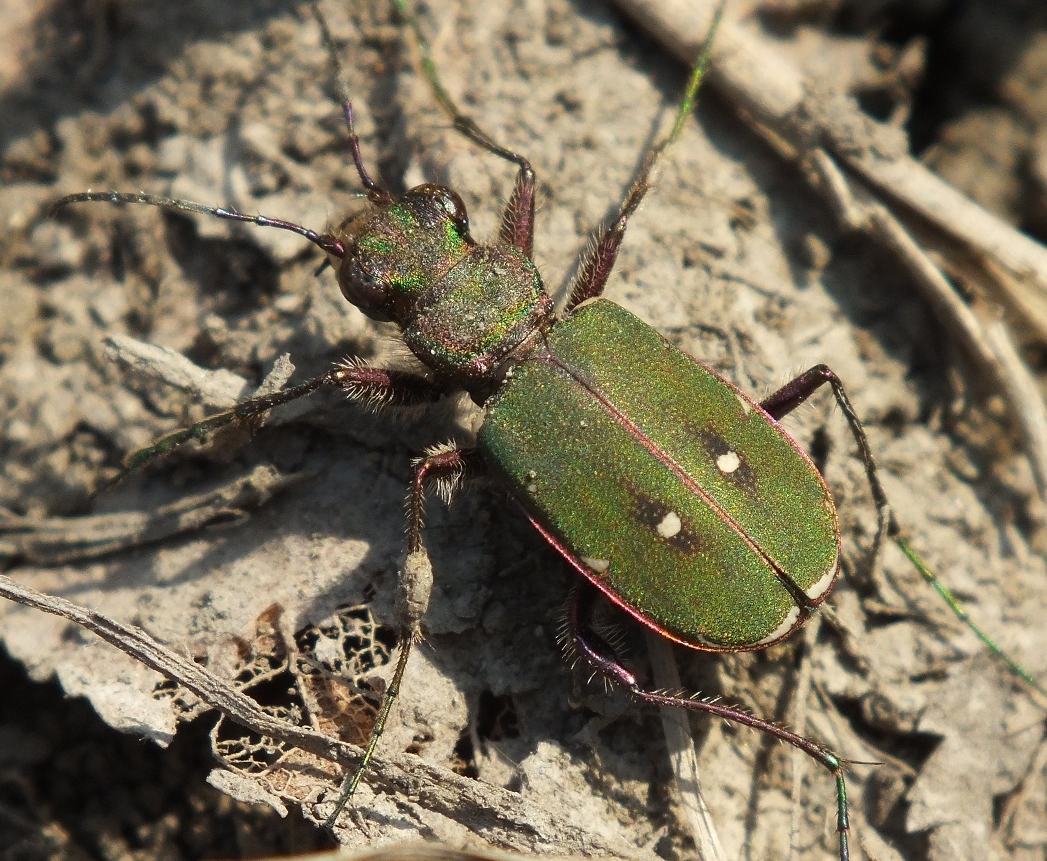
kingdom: Animalia
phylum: Arthropoda
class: Insecta
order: Coleoptera
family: Carabidae
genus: Cicindela
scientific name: Cicindela campestris
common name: Common tiger beetle
